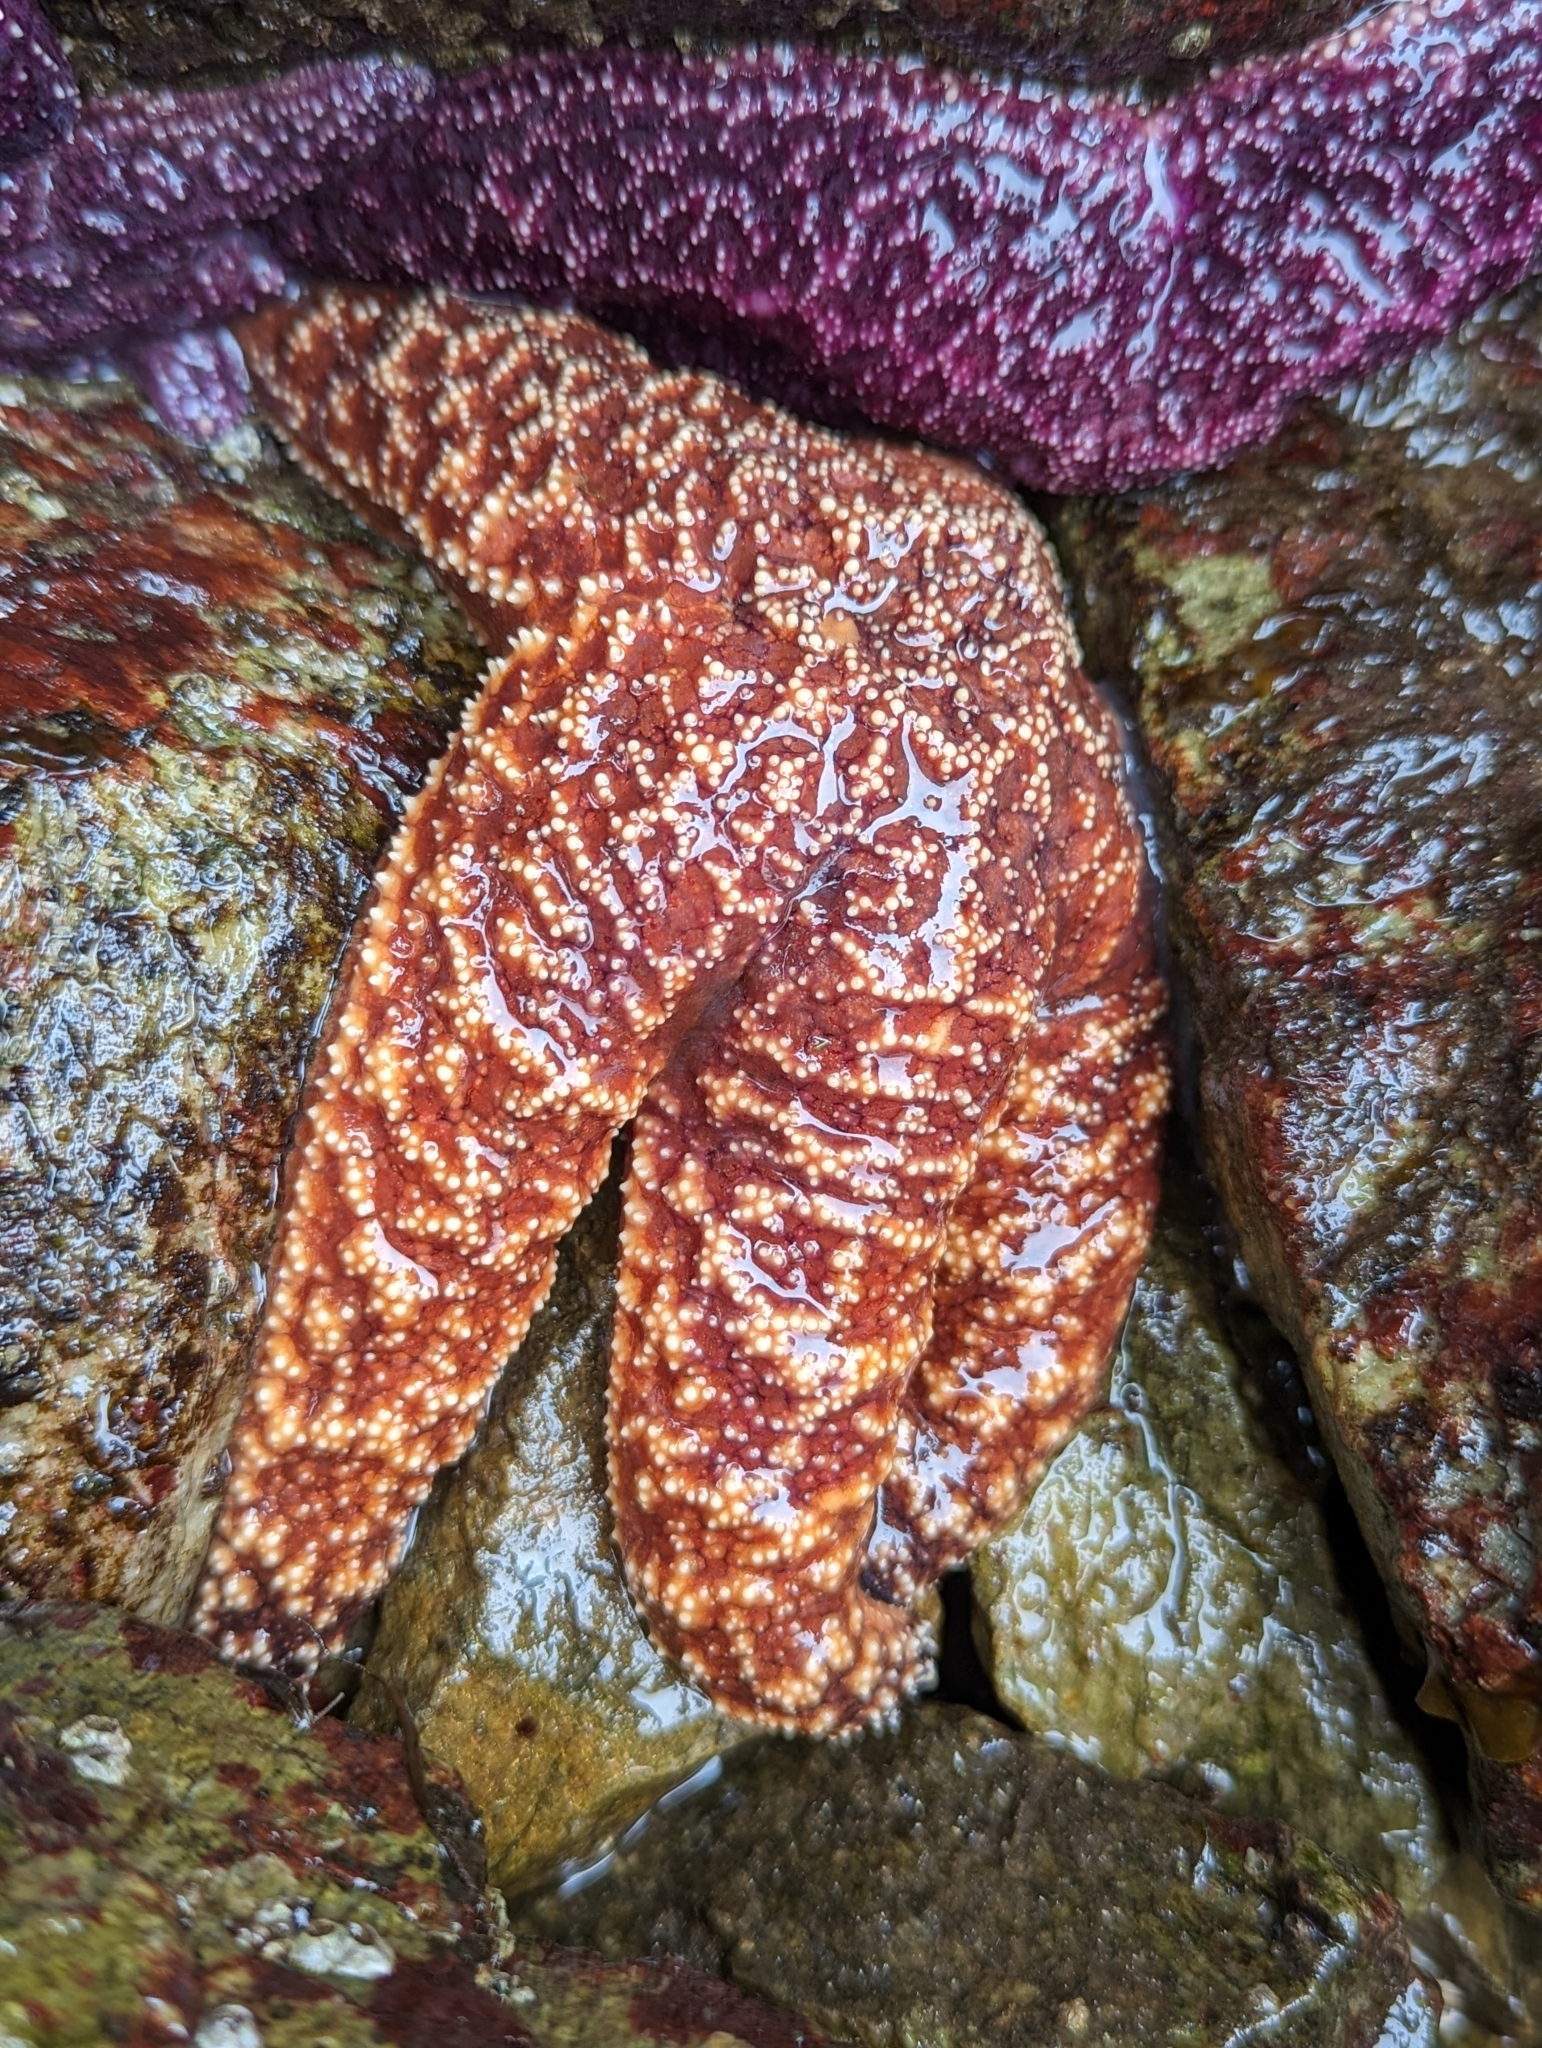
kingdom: Animalia
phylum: Echinodermata
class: Asteroidea
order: Forcipulatida
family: Asteriidae
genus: Pisaster
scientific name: Pisaster ochraceus
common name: Ochre stars
